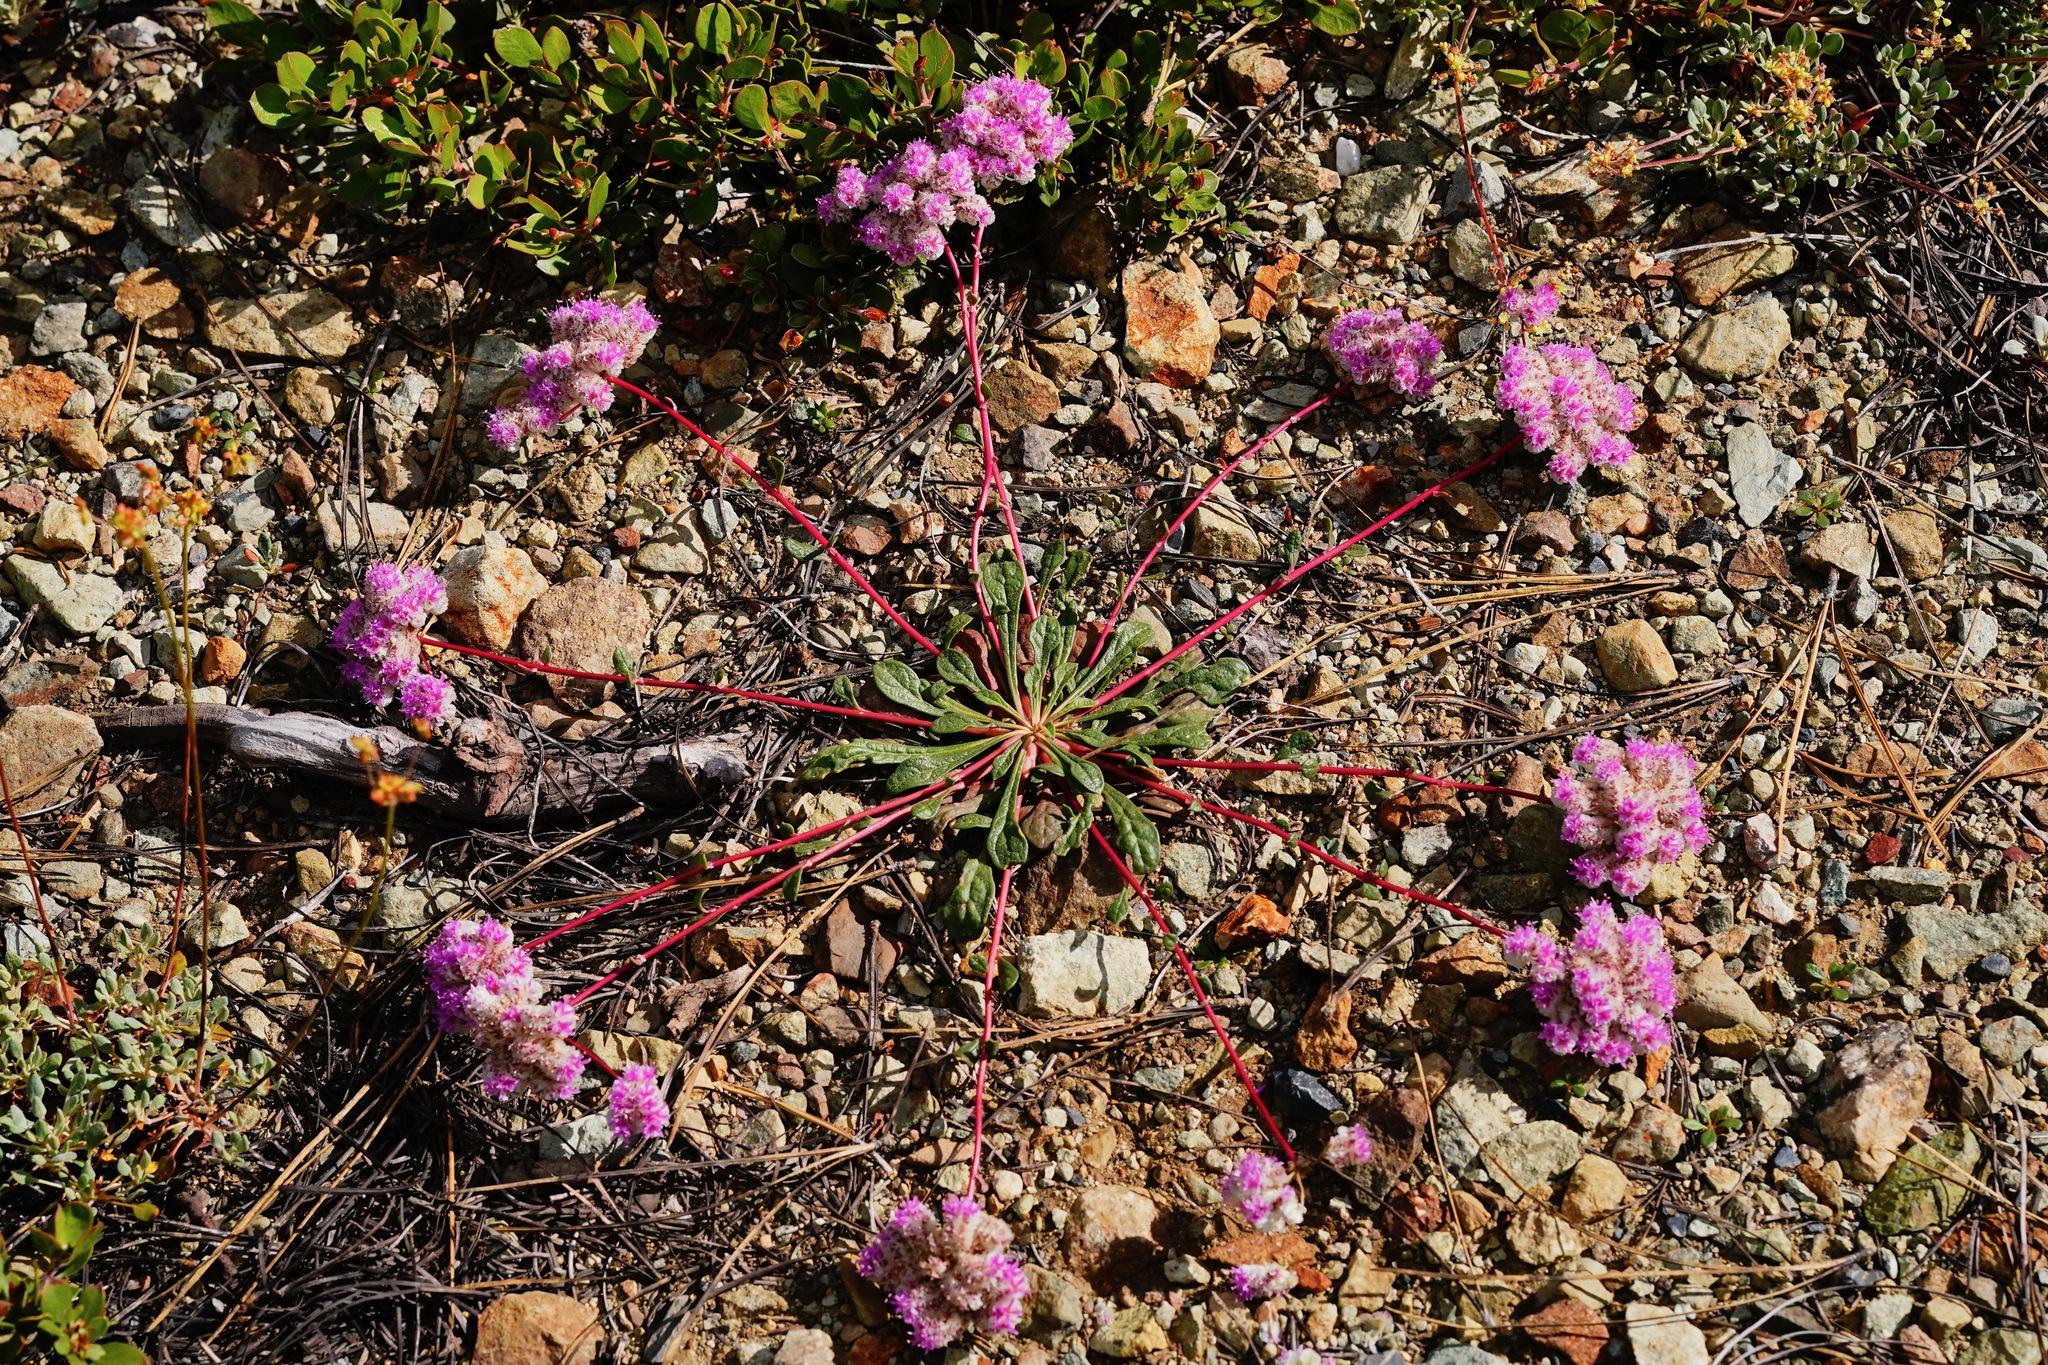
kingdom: Plantae
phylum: Tracheophyta
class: Magnoliopsida
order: Caryophyllales
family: Montiaceae
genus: Calyptridium
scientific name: Calyptridium monospermum
